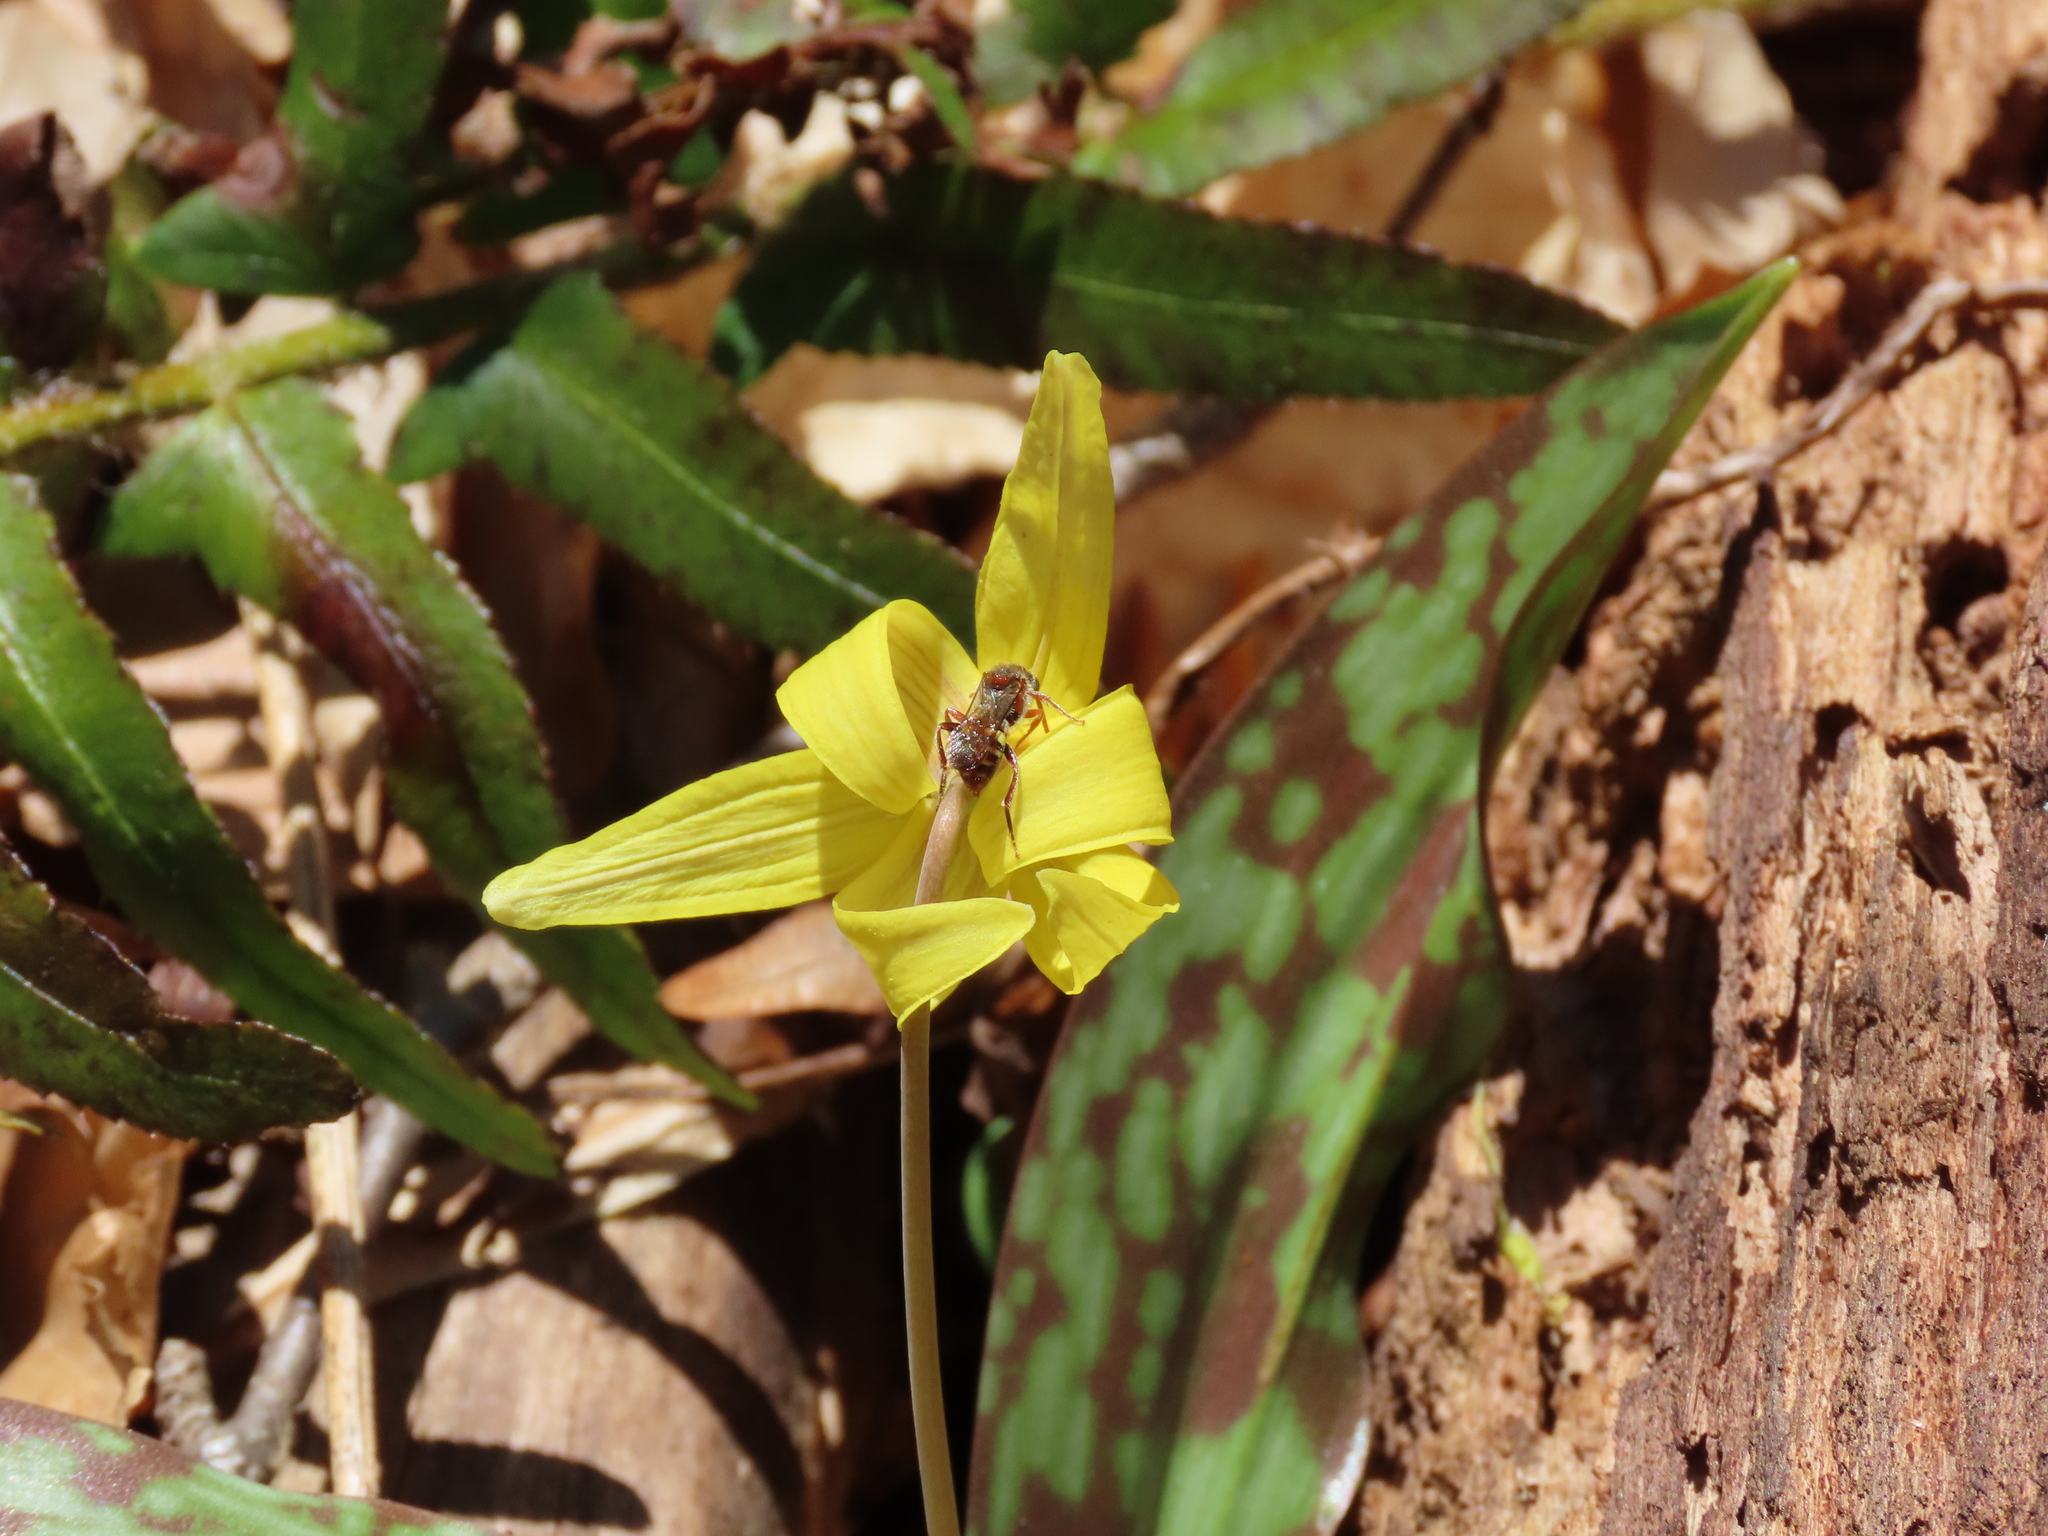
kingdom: Plantae
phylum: Tracheophyta
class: Liliopsida
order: Liliales
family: Liliaceae
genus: Erythronium
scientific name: Erythronium americanum
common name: Yellow adder's-tongue
